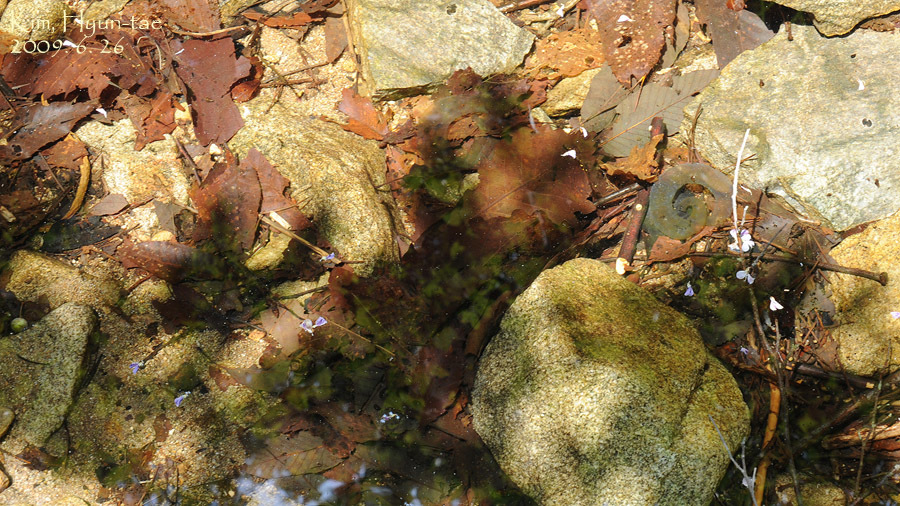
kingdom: Animalia
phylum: Chordata
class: Amphibia
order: Caudata
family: Hynobiidae
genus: Hynobius
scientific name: Hynobius leechii
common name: Gensan salamander
